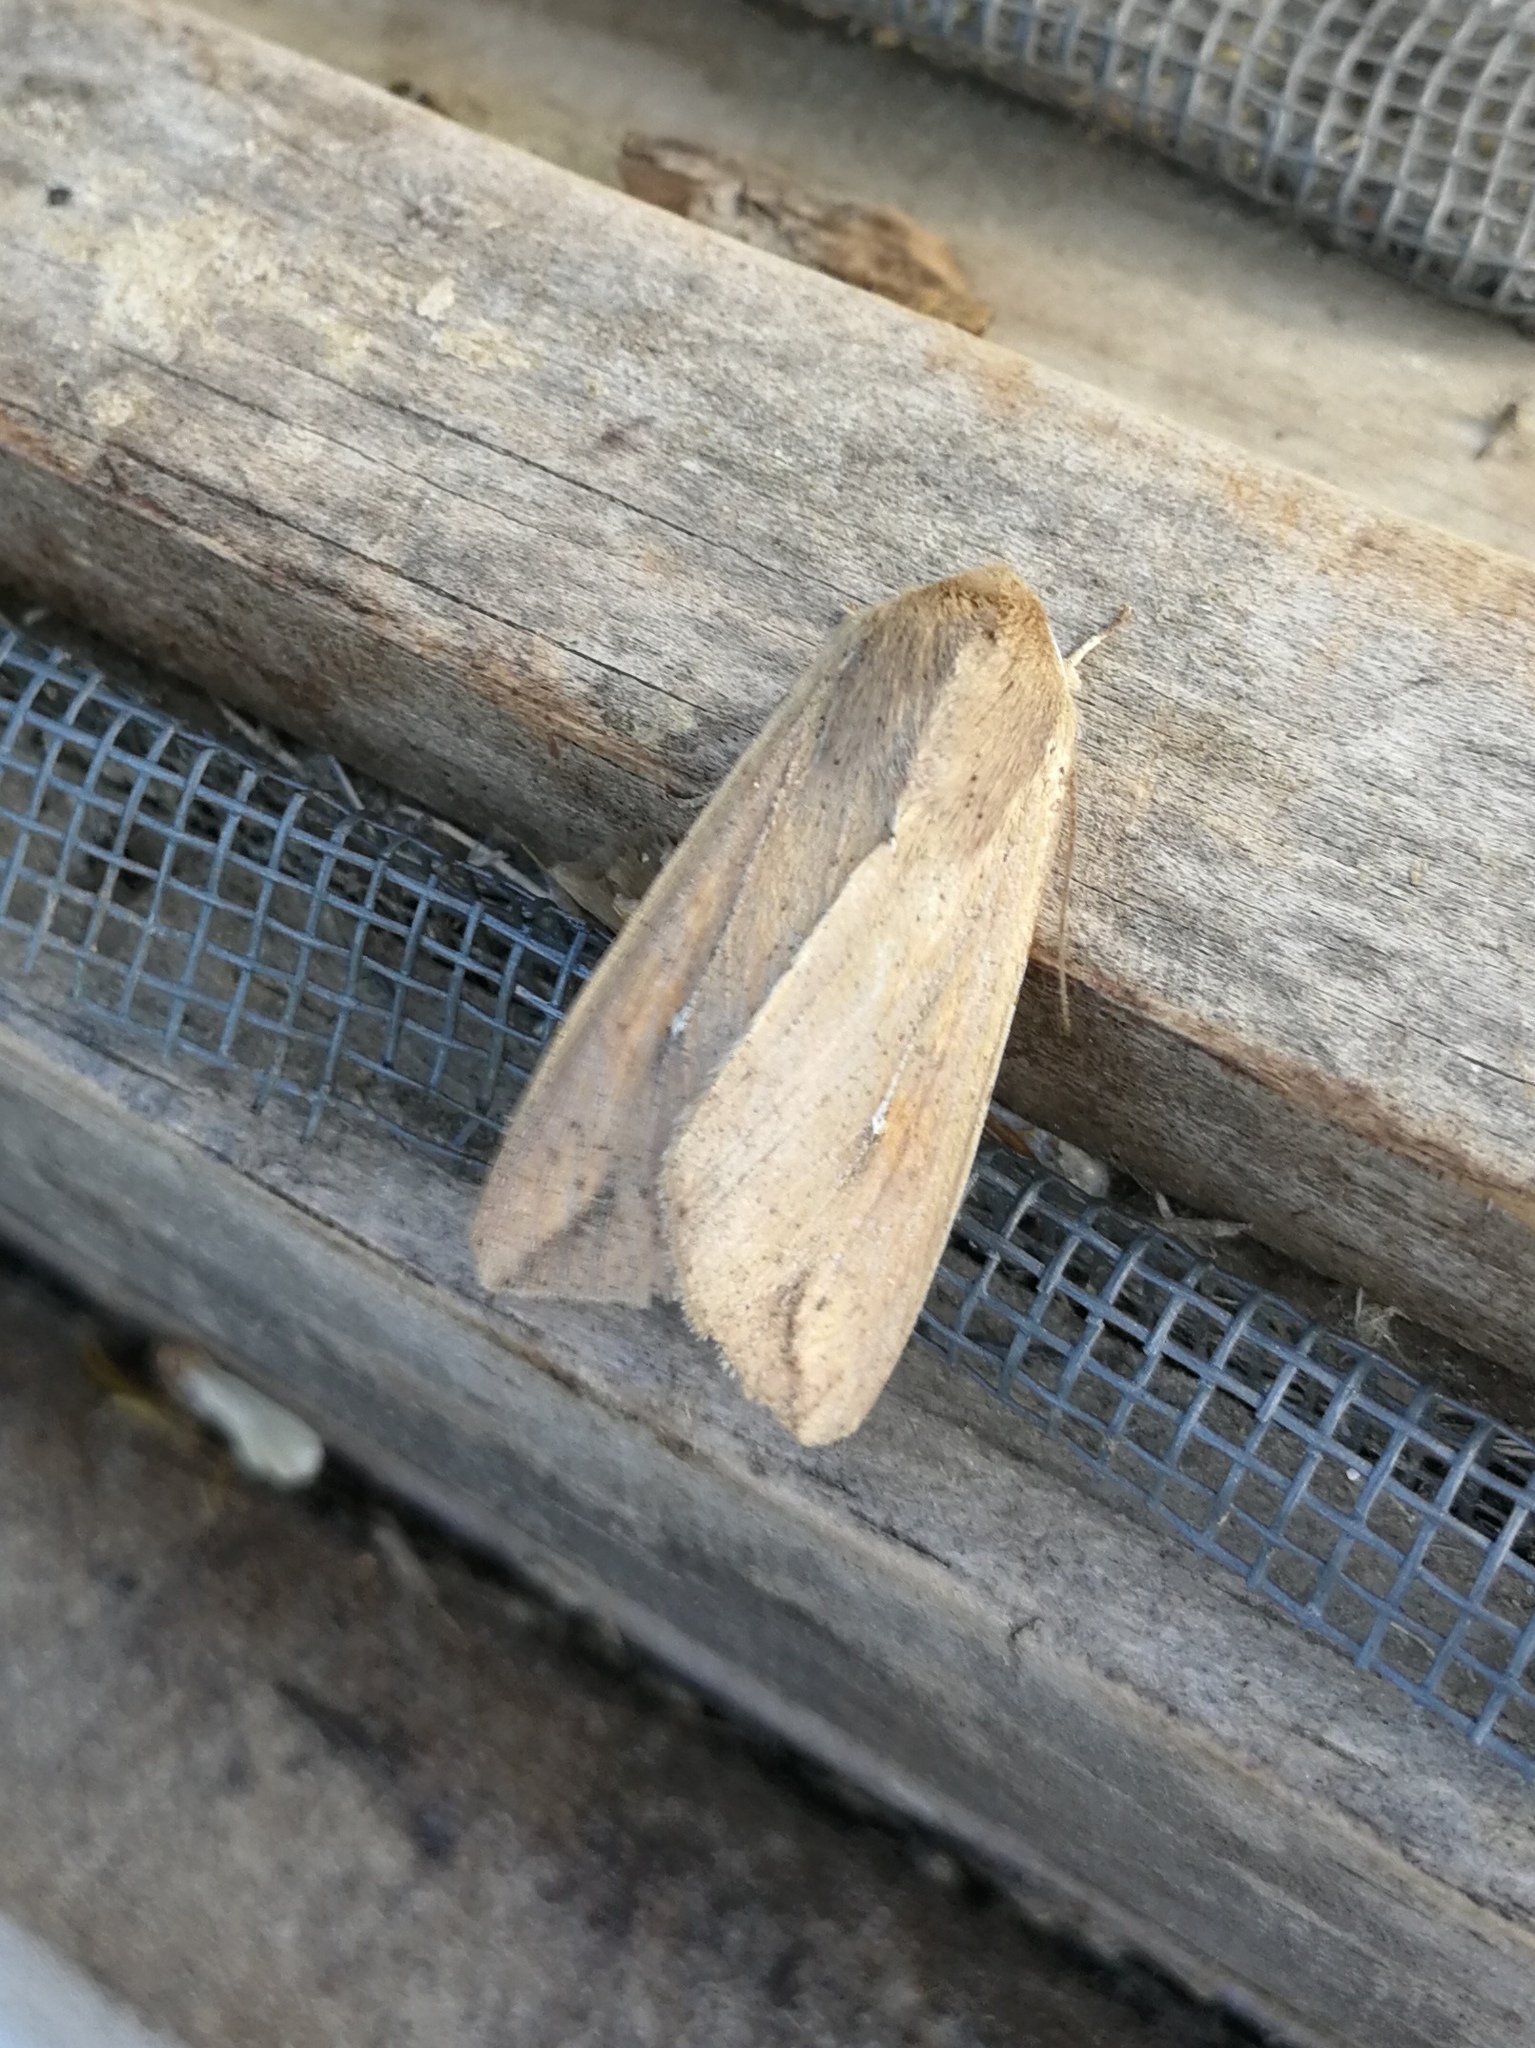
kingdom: Animalia
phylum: Arthropoda
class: Insecta
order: Lepidoptera
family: Noctuidae
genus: Mythimna
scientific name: Mythimna unipuncta
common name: White-speck
